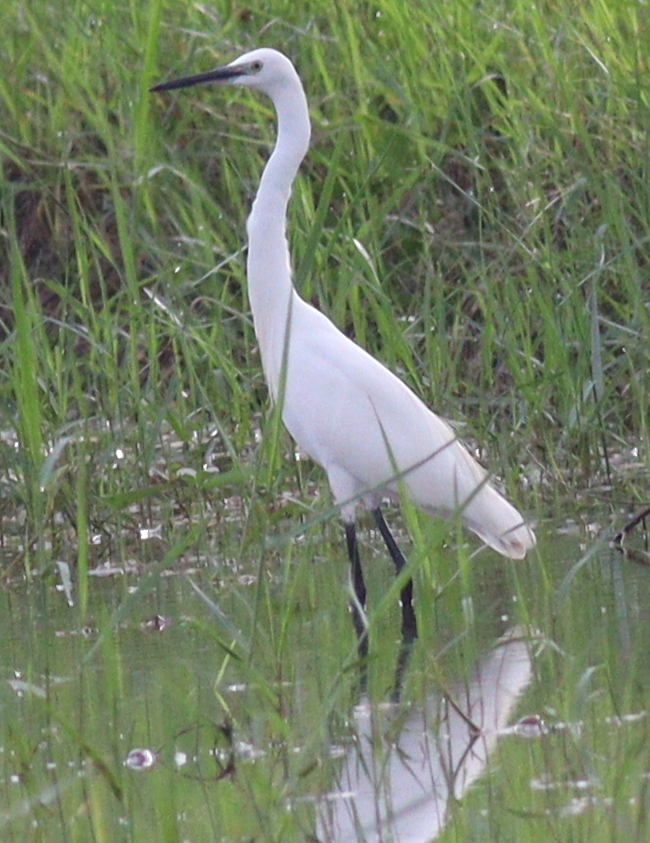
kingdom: Animalia
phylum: Chordata
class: Aves
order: Pelecaniformes
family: Ardeidae
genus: Egretta
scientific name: Egretta garzetta
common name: Little egret
